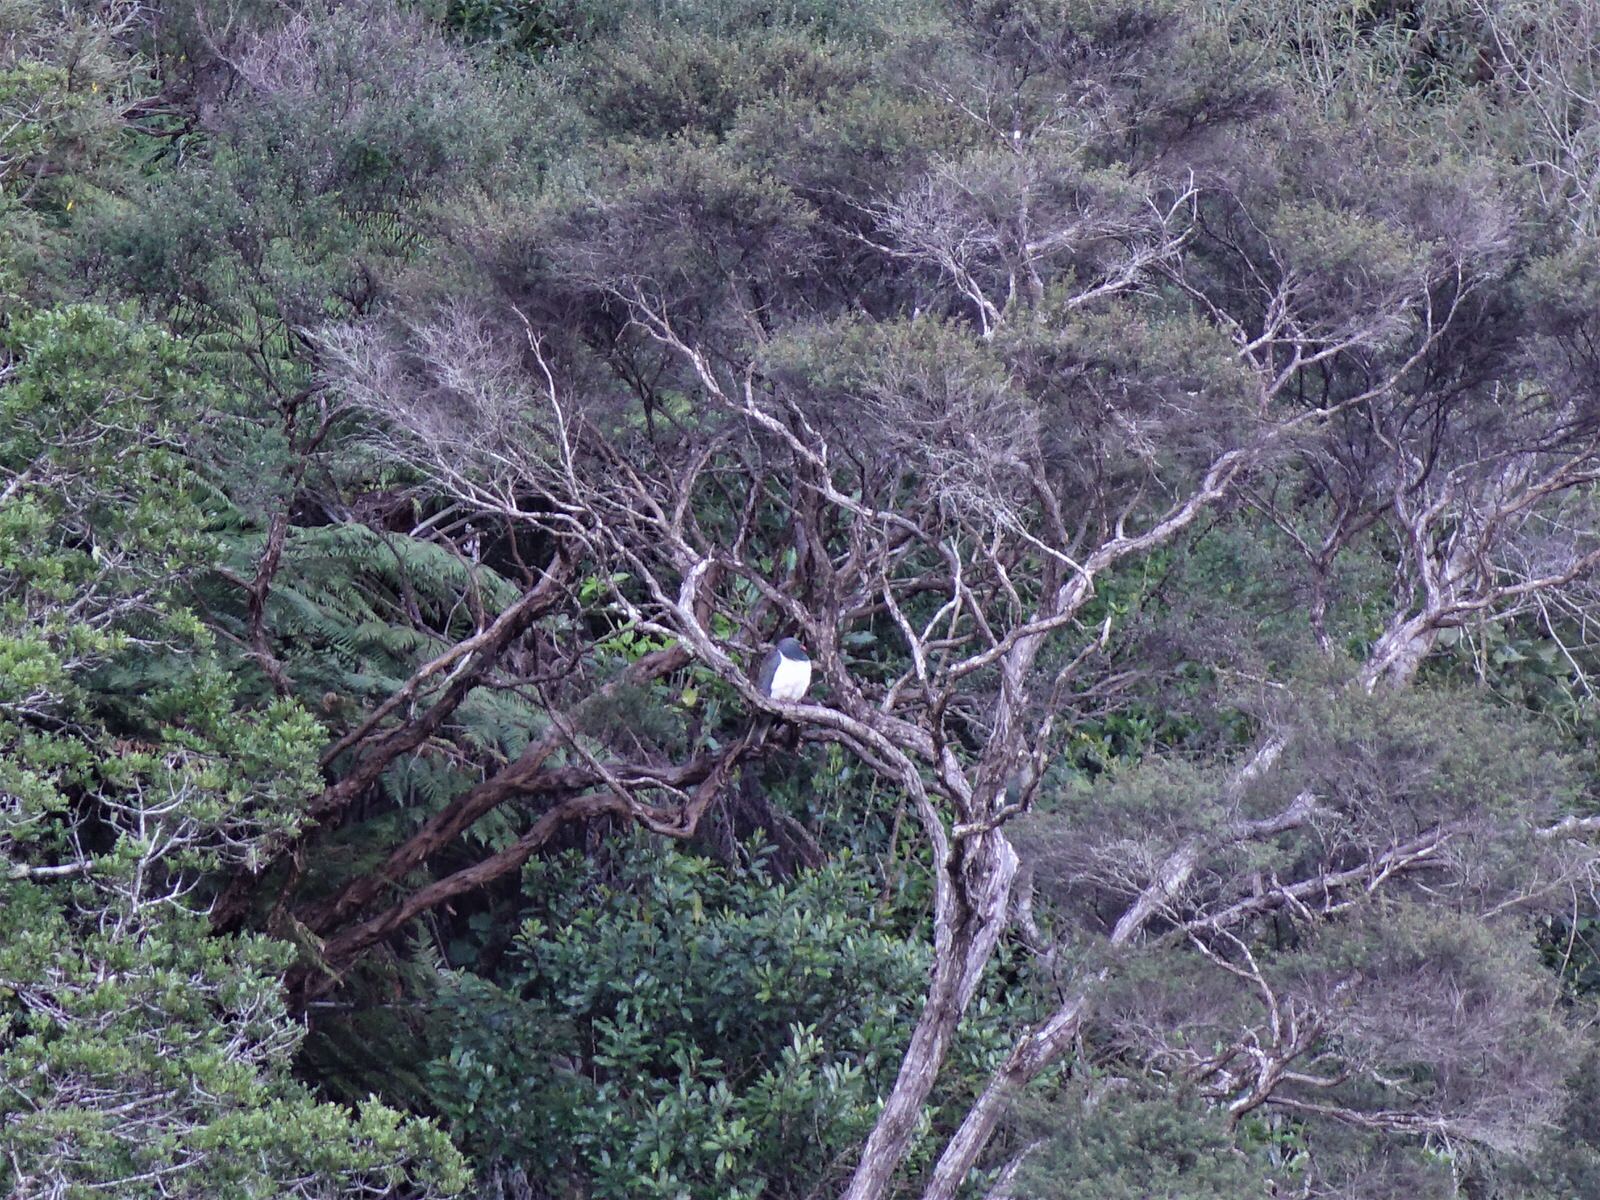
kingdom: Animalia
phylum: Chordata
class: Aves
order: Columbiformes
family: Columbidae
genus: Hemiphaga
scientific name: Hemiphaga novaeseelandiae
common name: New zealand pigeon
